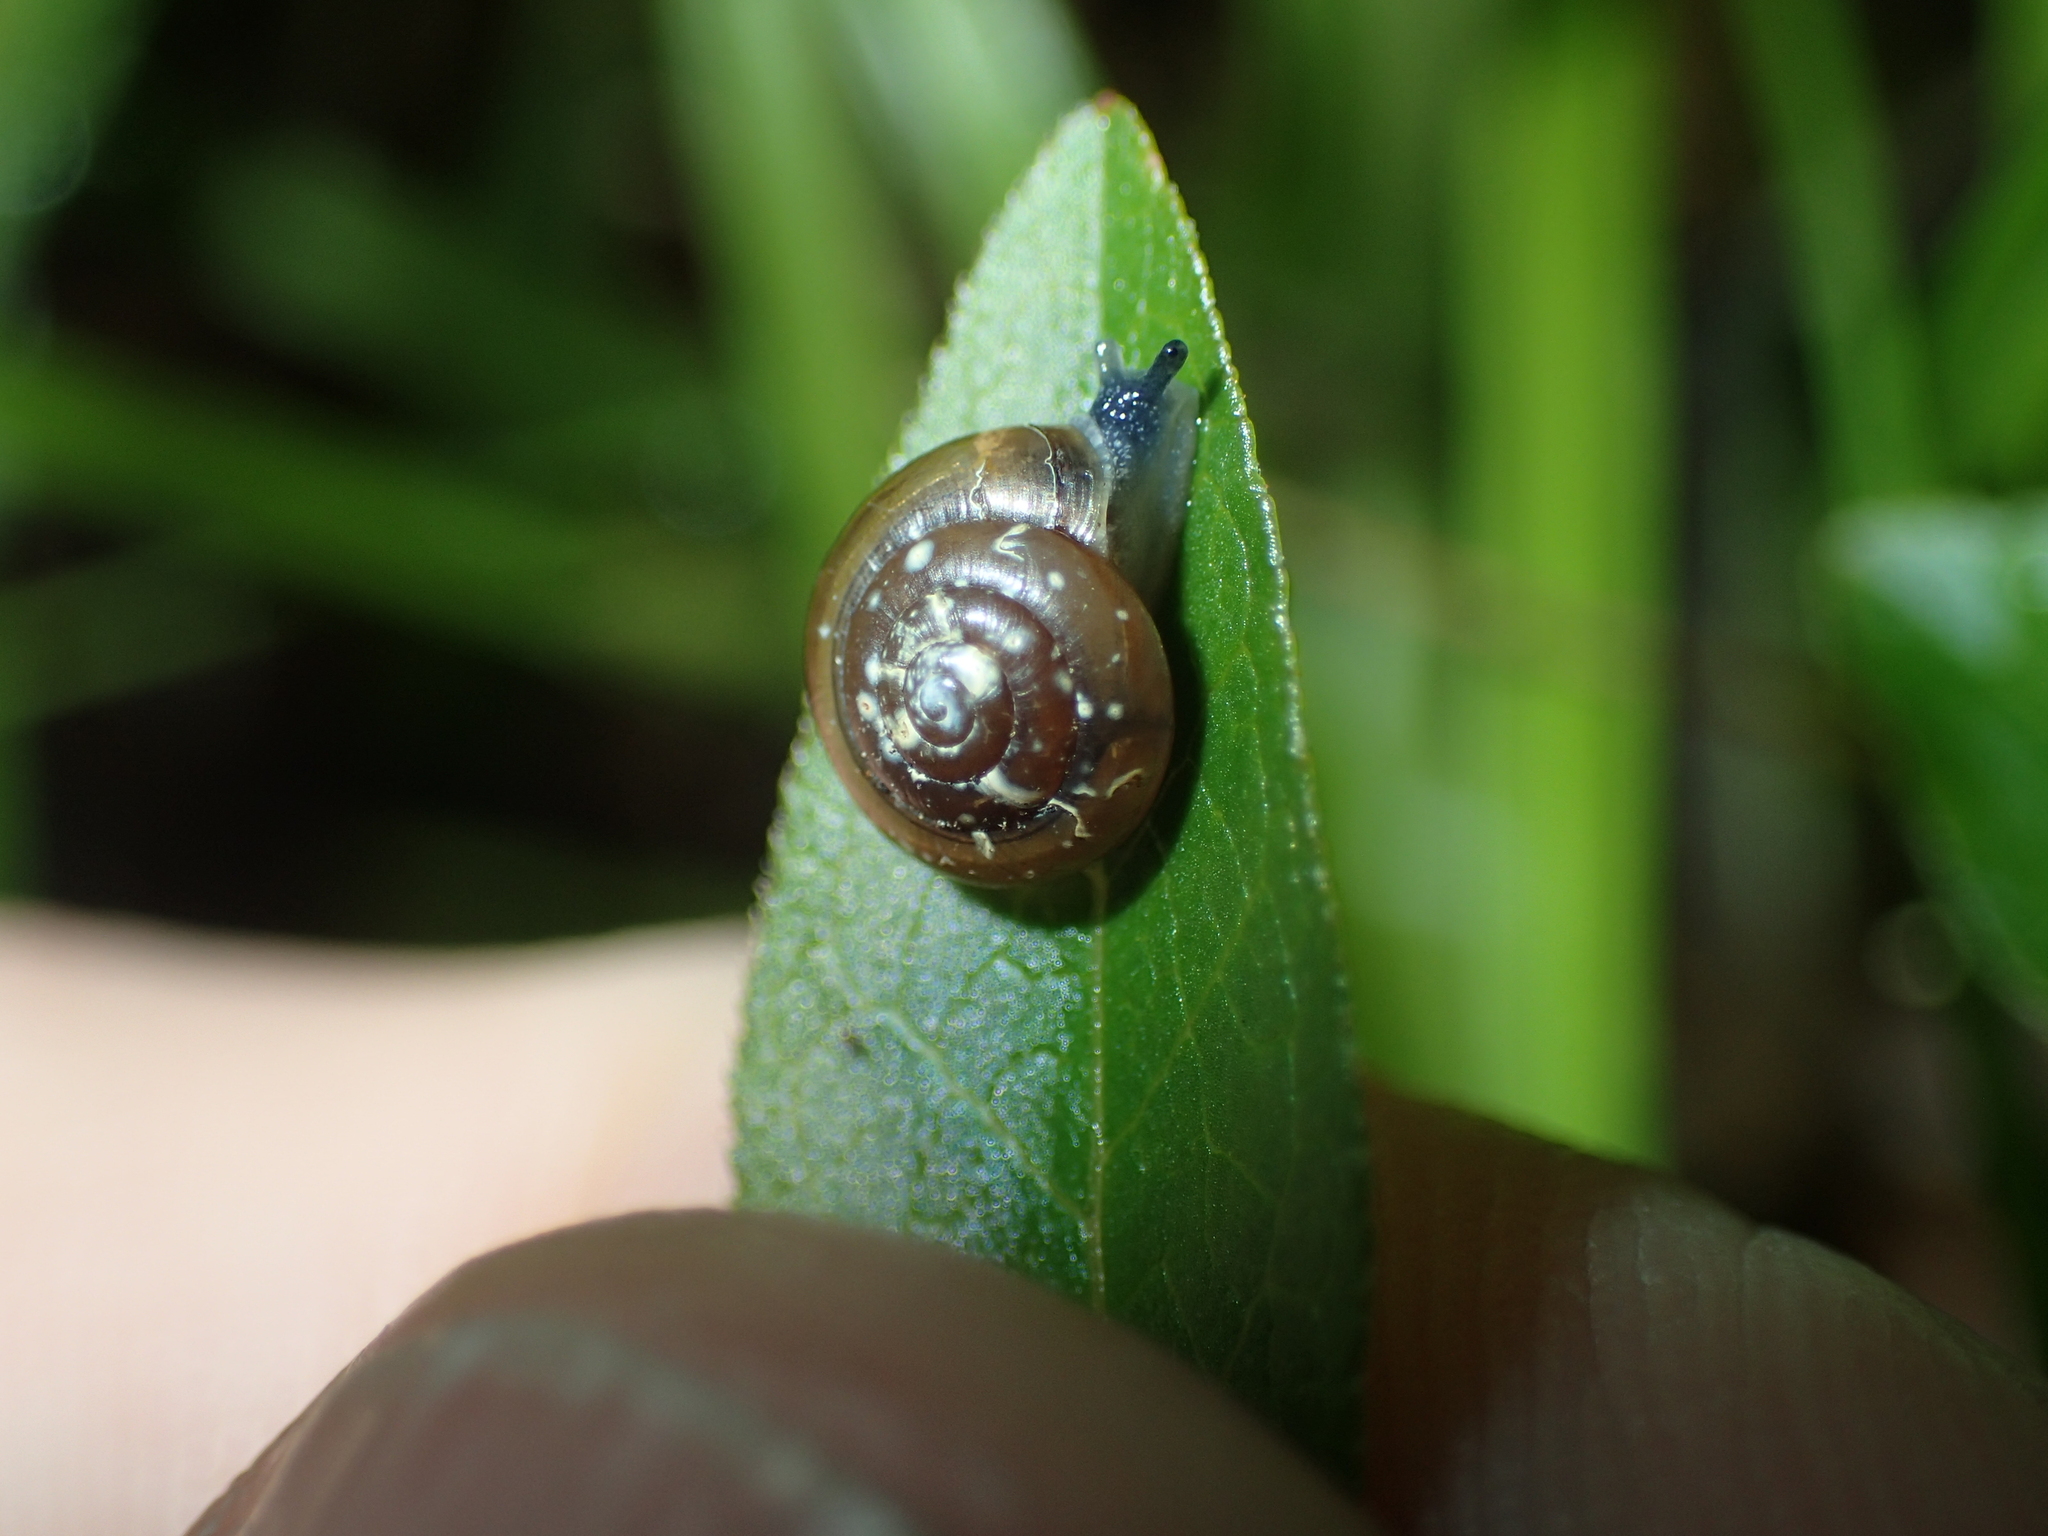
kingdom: Animalia
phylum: Mollusca
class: Gastropoda
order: Stylommatophora
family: Gastrodontidae
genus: Zonitoides
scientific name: Zonitoides arboreus
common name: Quick gloss
